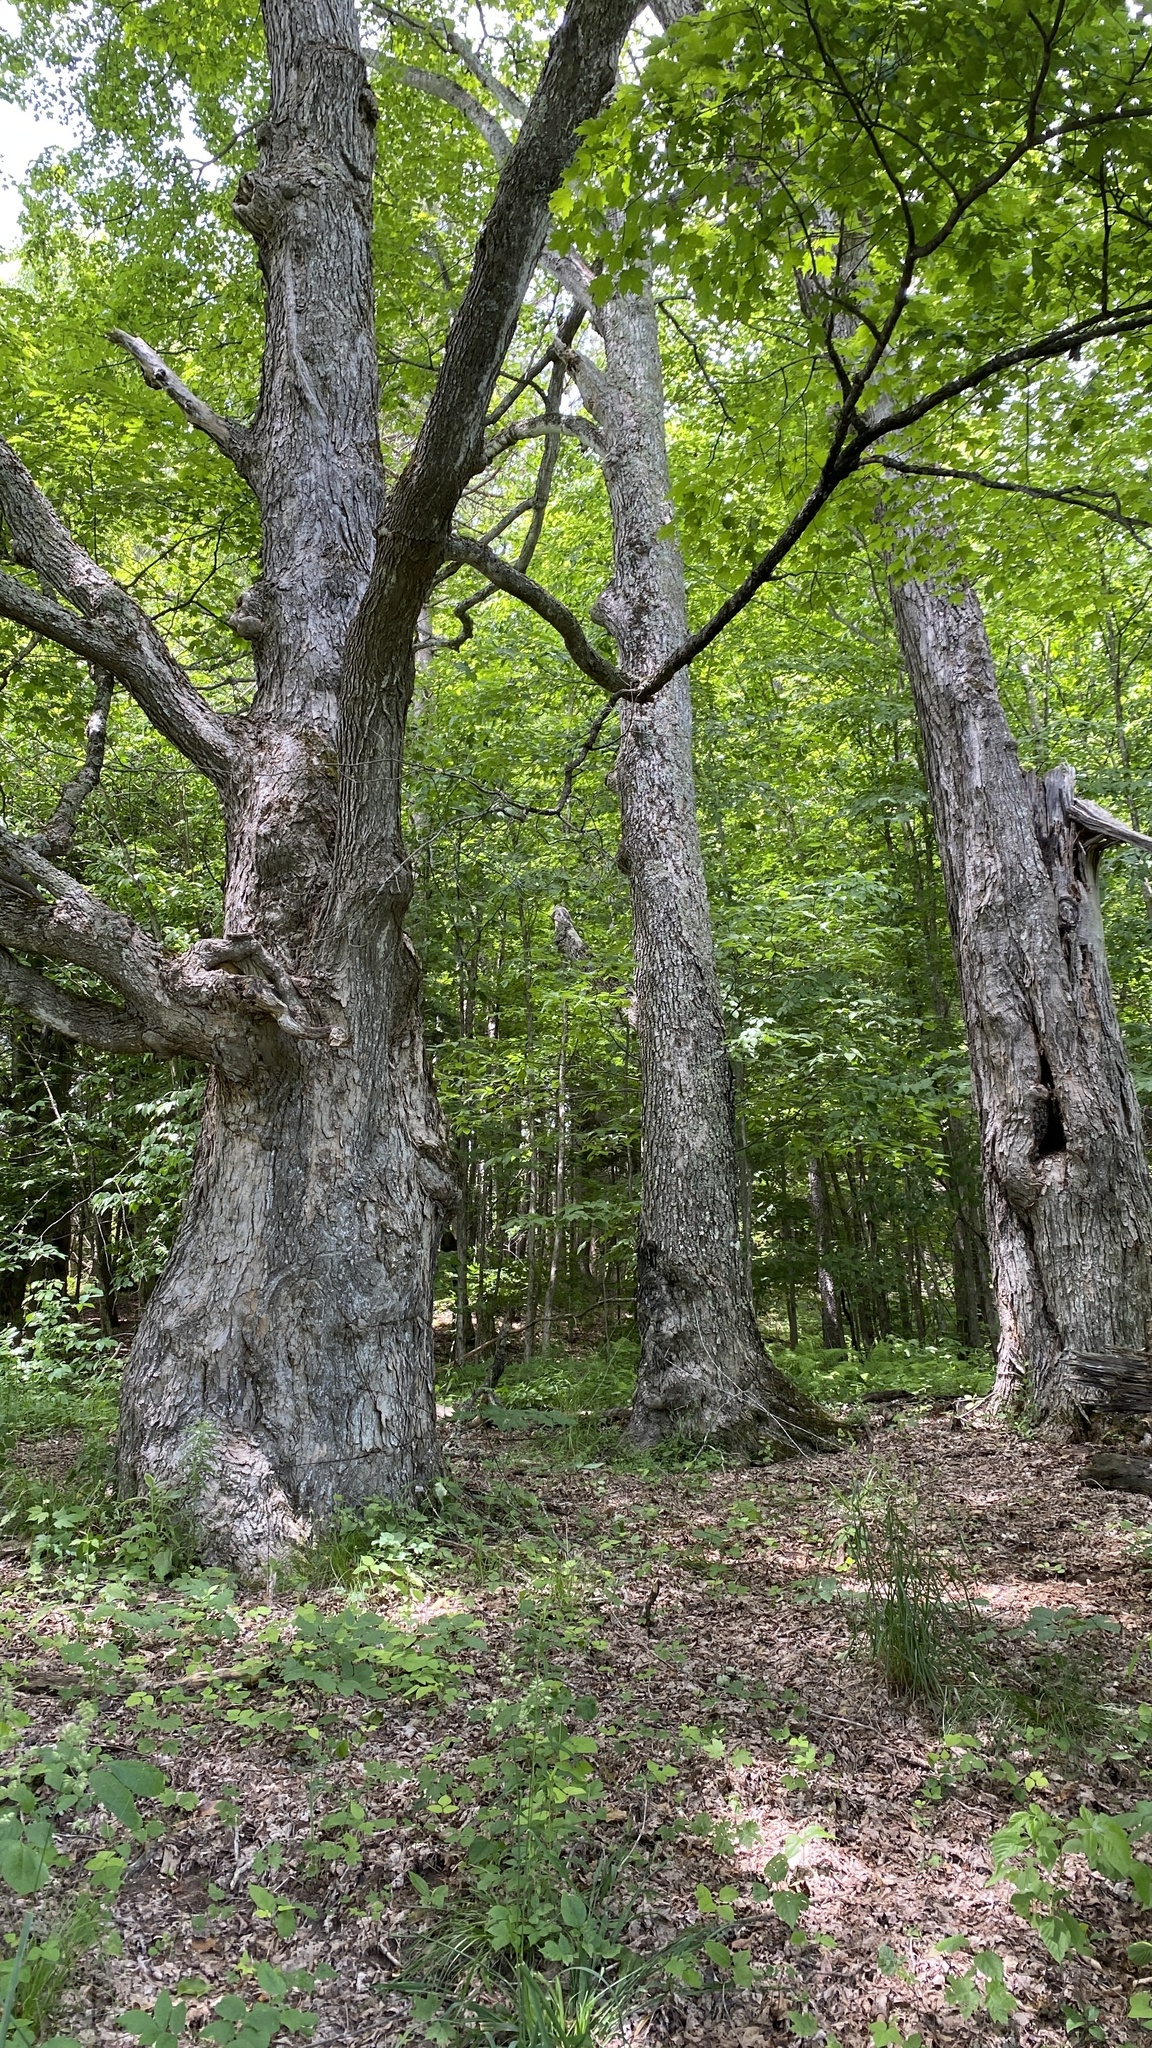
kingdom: Plantae
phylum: Tracheophyta
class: Magnoliopsida
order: Sapindales
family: Sapindaceae
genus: Acer
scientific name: Acer saccharum
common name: Sugar maple
